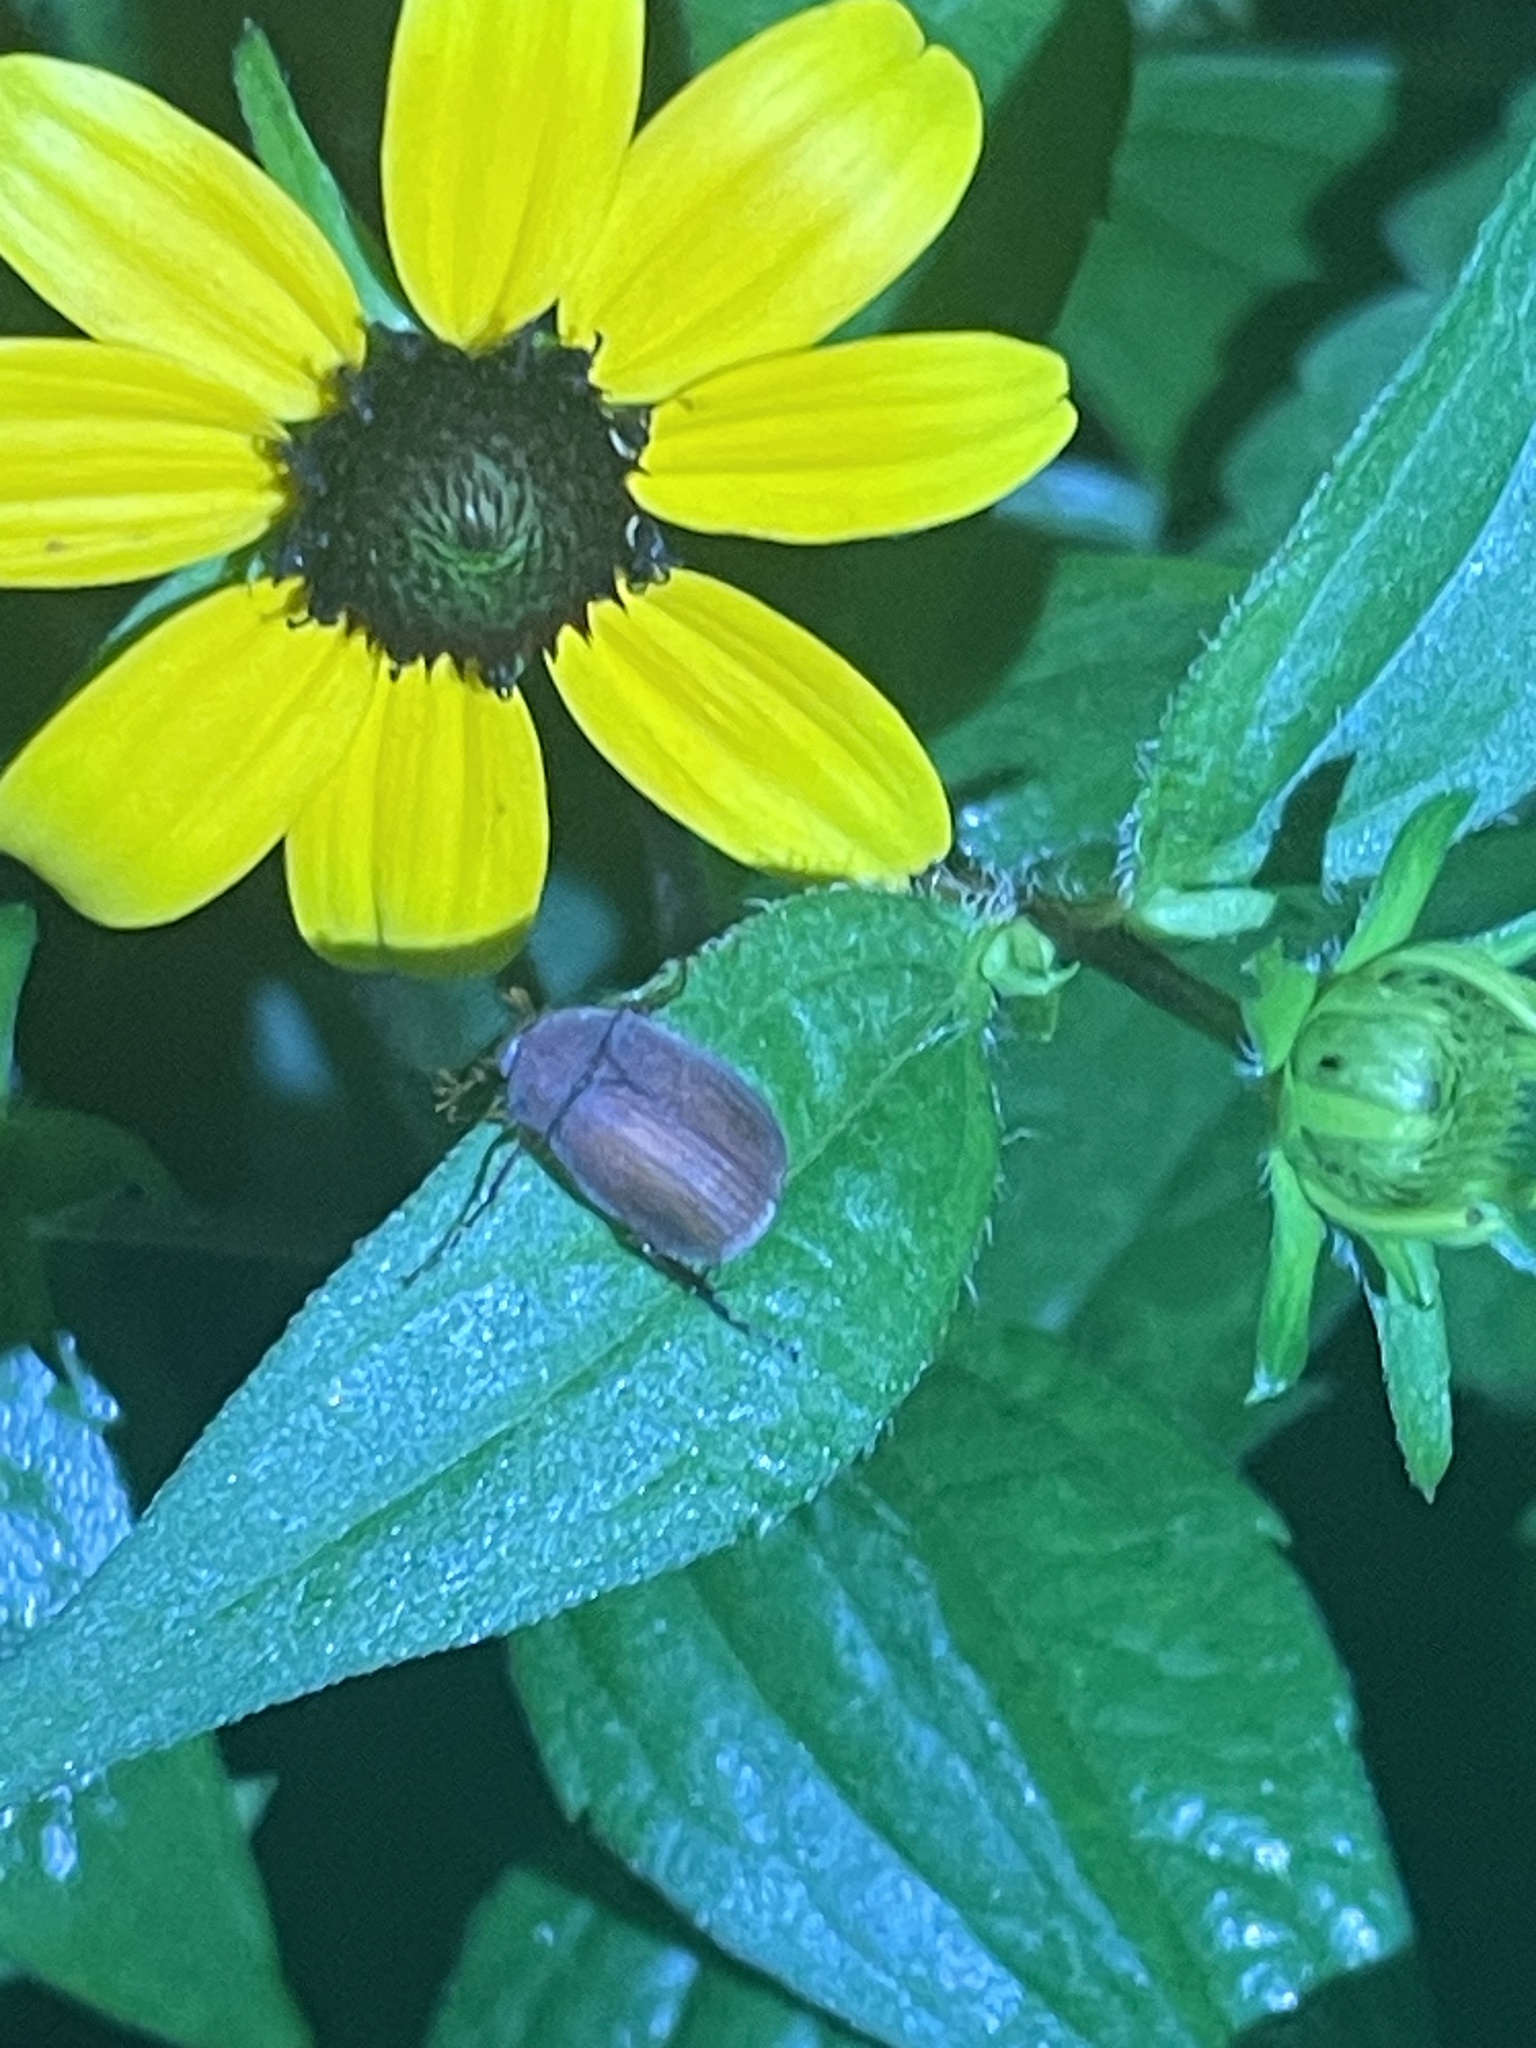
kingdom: Animalia
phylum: Arthropoda
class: Insecta
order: Coleoptera
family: Scarabaeidae
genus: Maladera
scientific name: Maladera formosae
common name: Asiatic garden beetle
